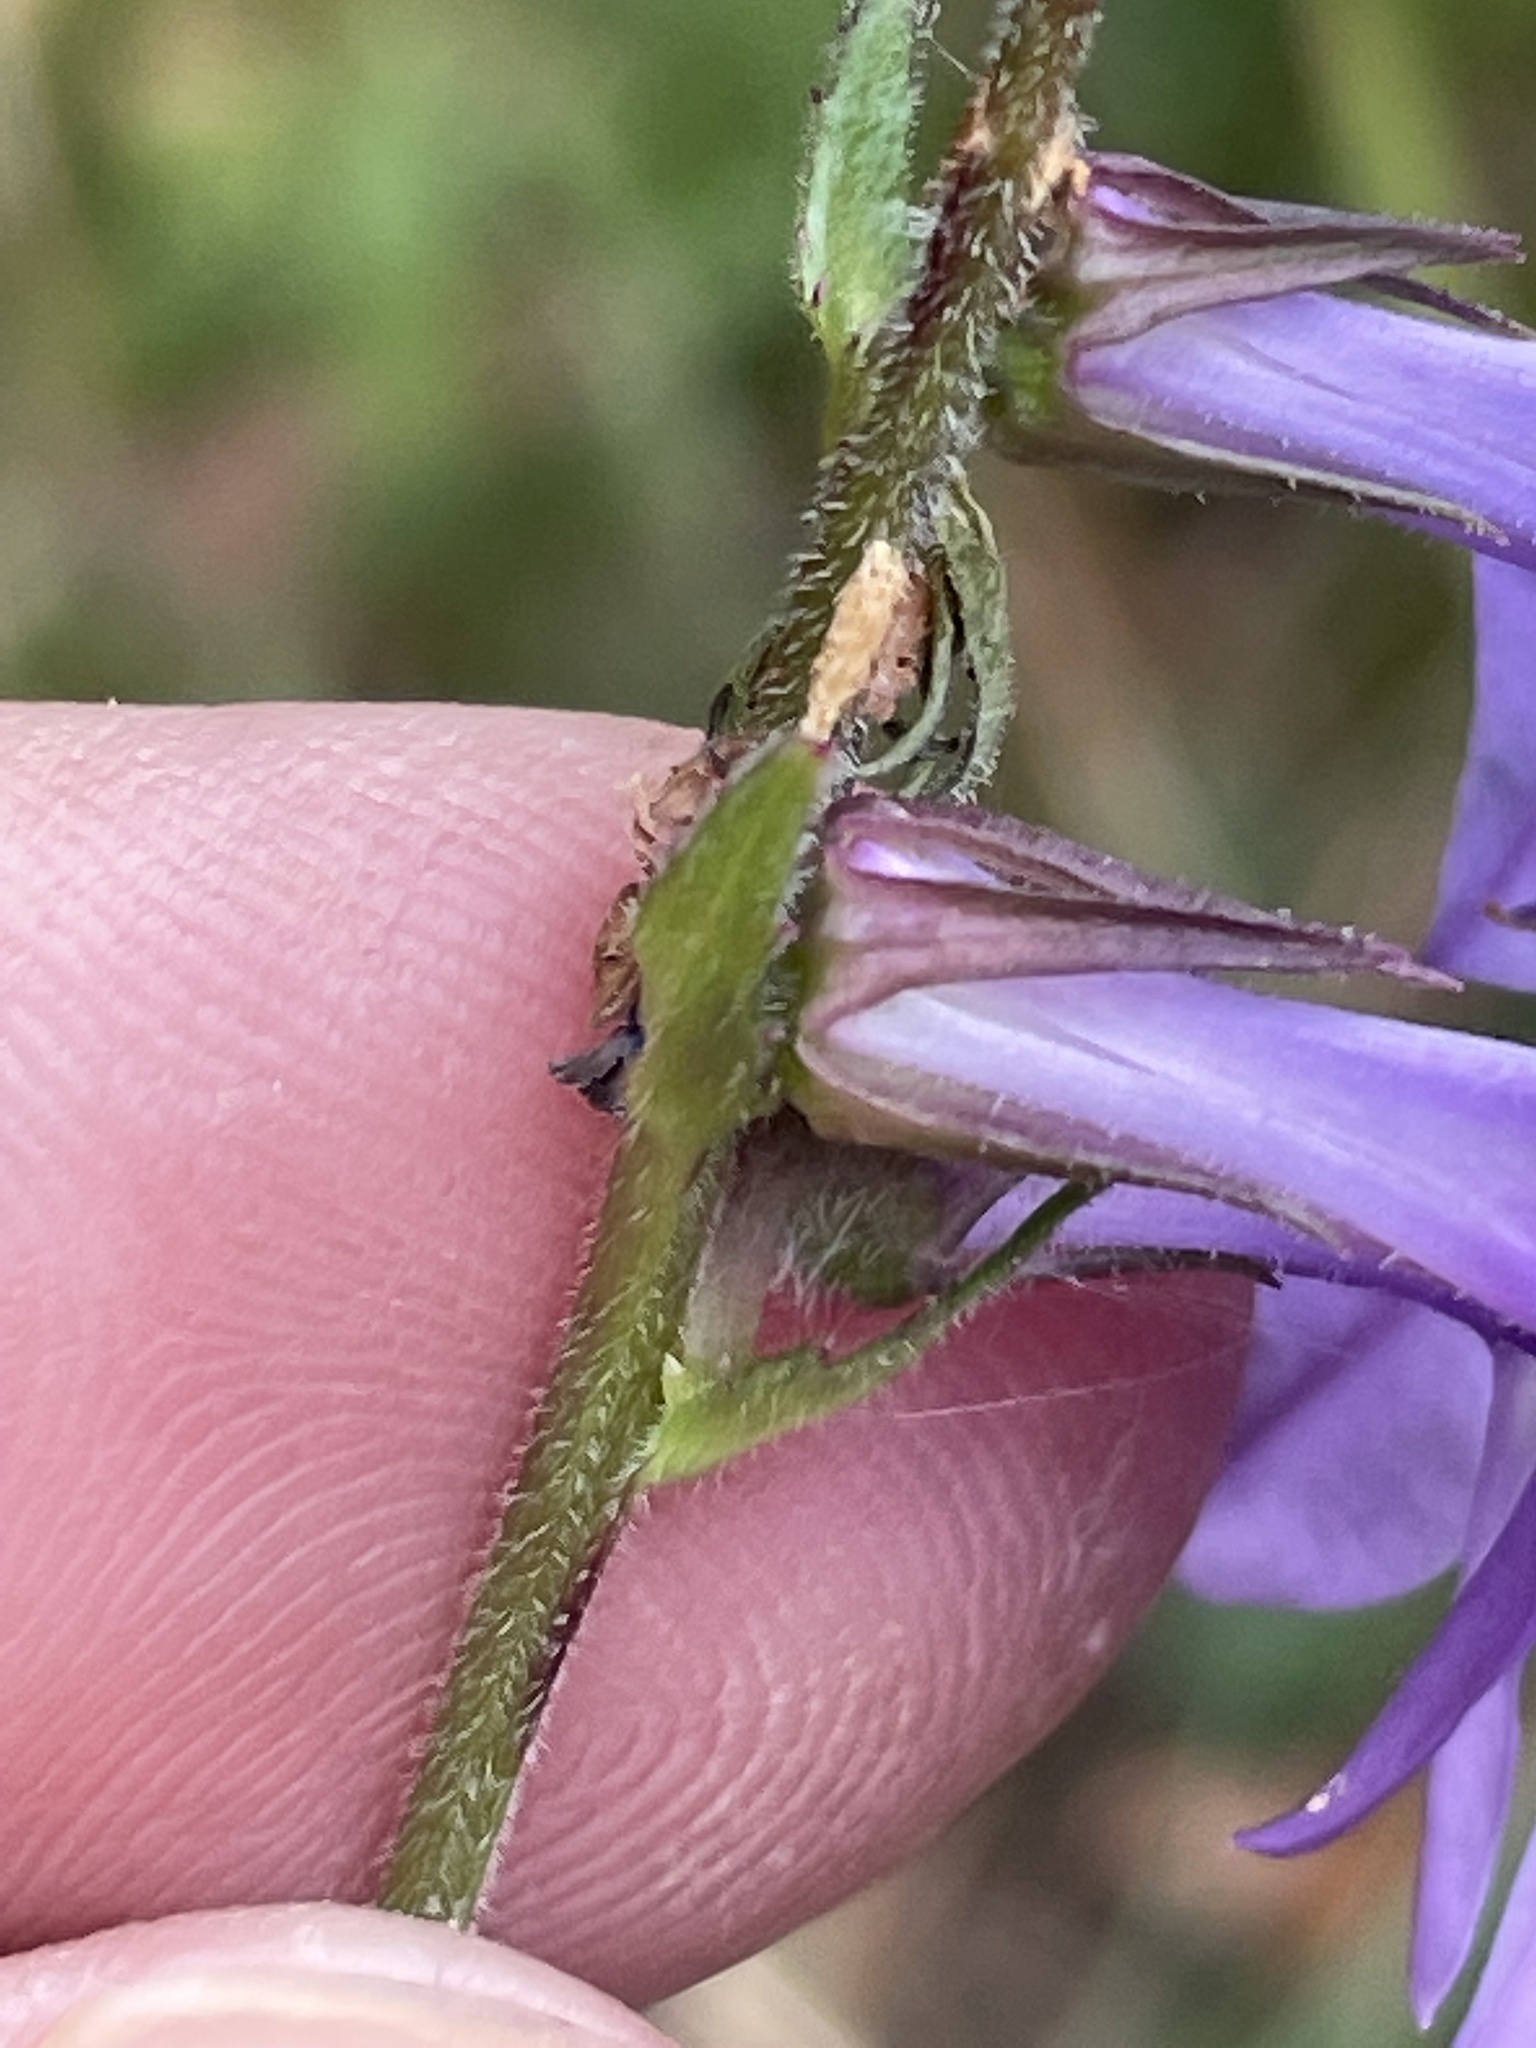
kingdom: Plantae
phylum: Tracheophyta
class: Magnoliopsida
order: Asterales
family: Campanulaceae
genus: Lobelia
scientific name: Lobelia puberula
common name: Purple dewdrop
